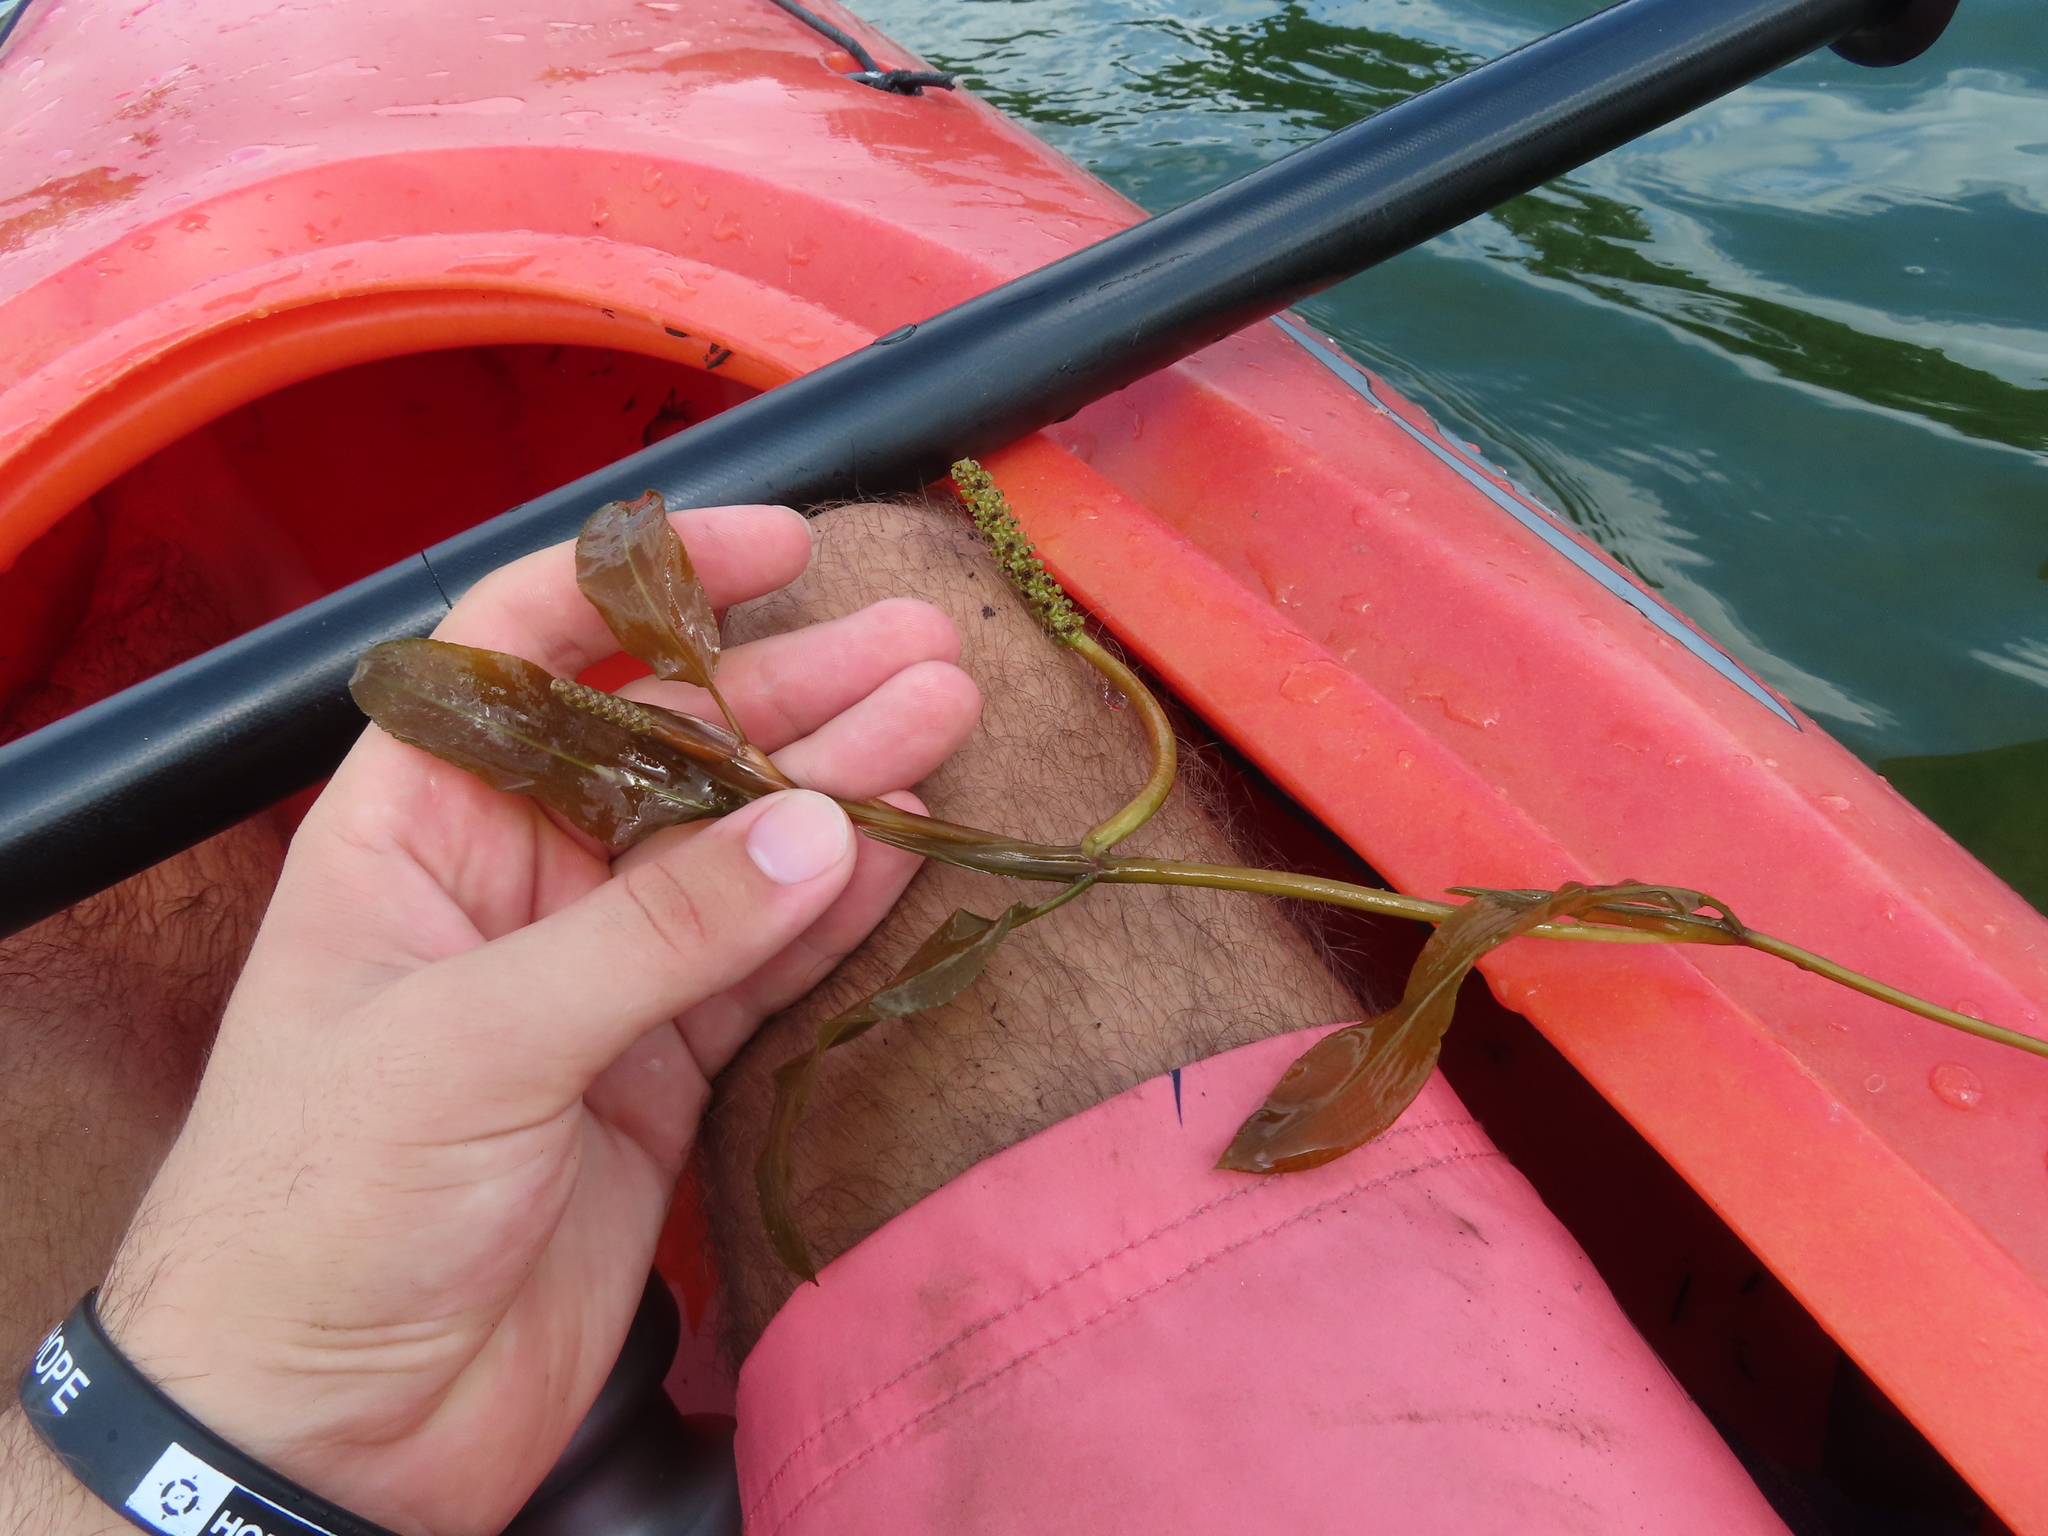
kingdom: Plantae
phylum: Tracheophyta
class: Liliopsida
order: Alismatales
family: Potamogetonaceae
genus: Potamogeton
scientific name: Potamogeton illinoensis
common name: Illinois pondweed
